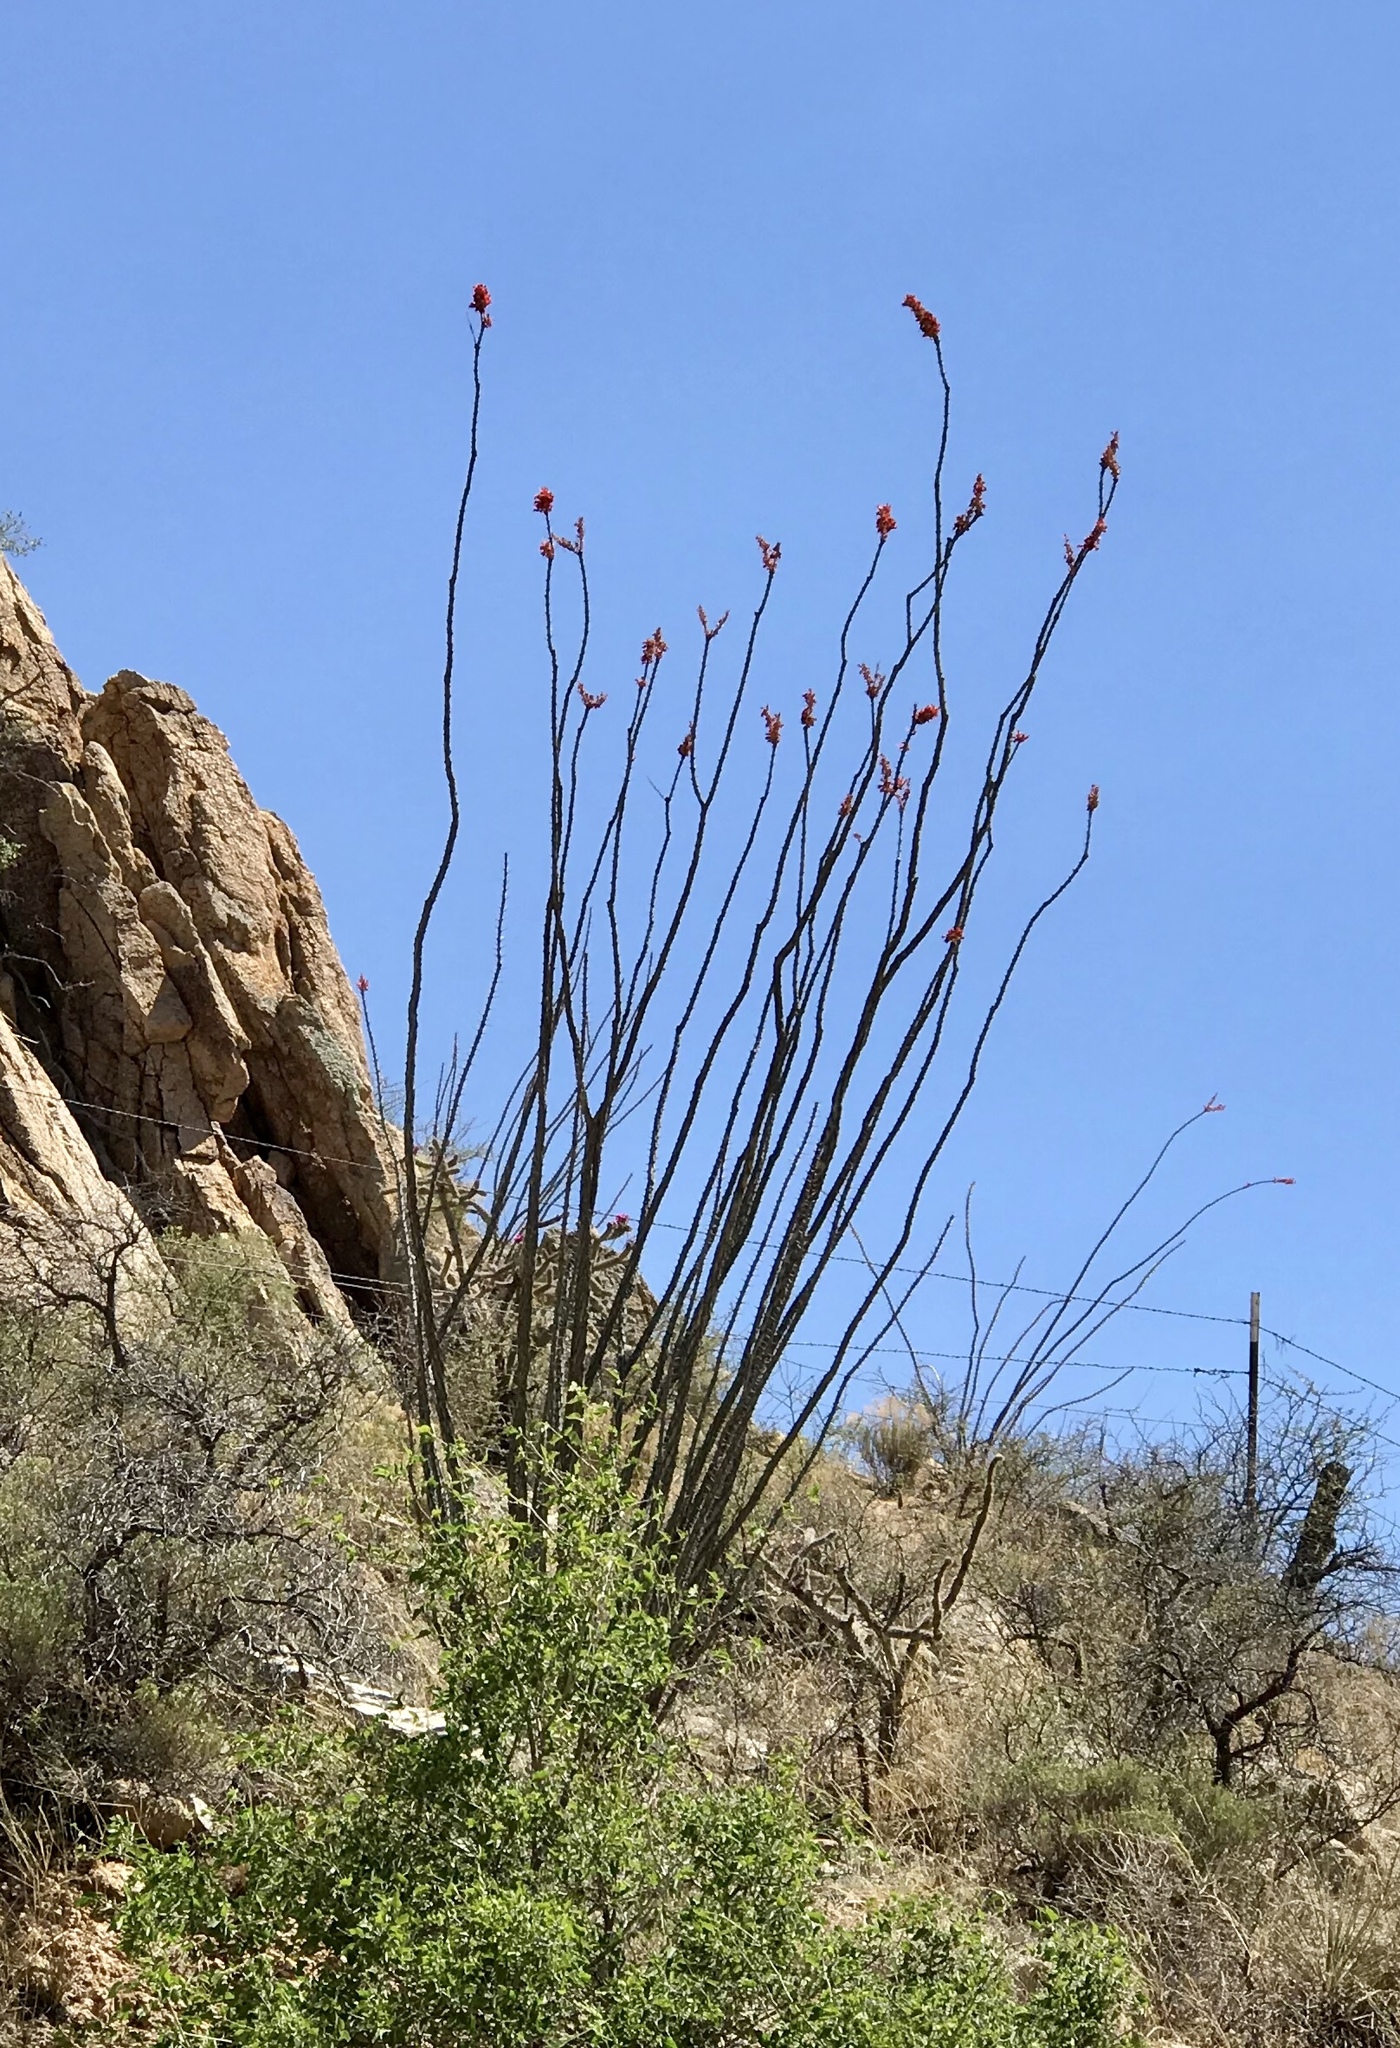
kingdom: Plantae
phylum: Tracheophyta
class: Magnoliopsida
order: Ericales
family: Fouquieriaceae
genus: Fouquieria
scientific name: Fouquieria splendens
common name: Vine-cactus
